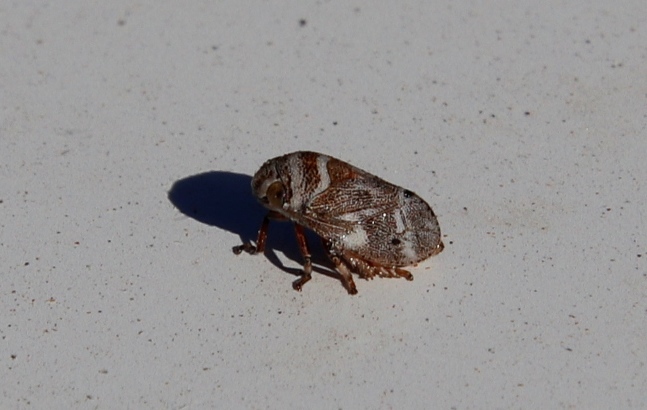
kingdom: Animalia
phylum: Arthropoda
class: Insecta
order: Hemiptera
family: Aphrophoridae
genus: Tremapterus
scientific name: Tremapterus
